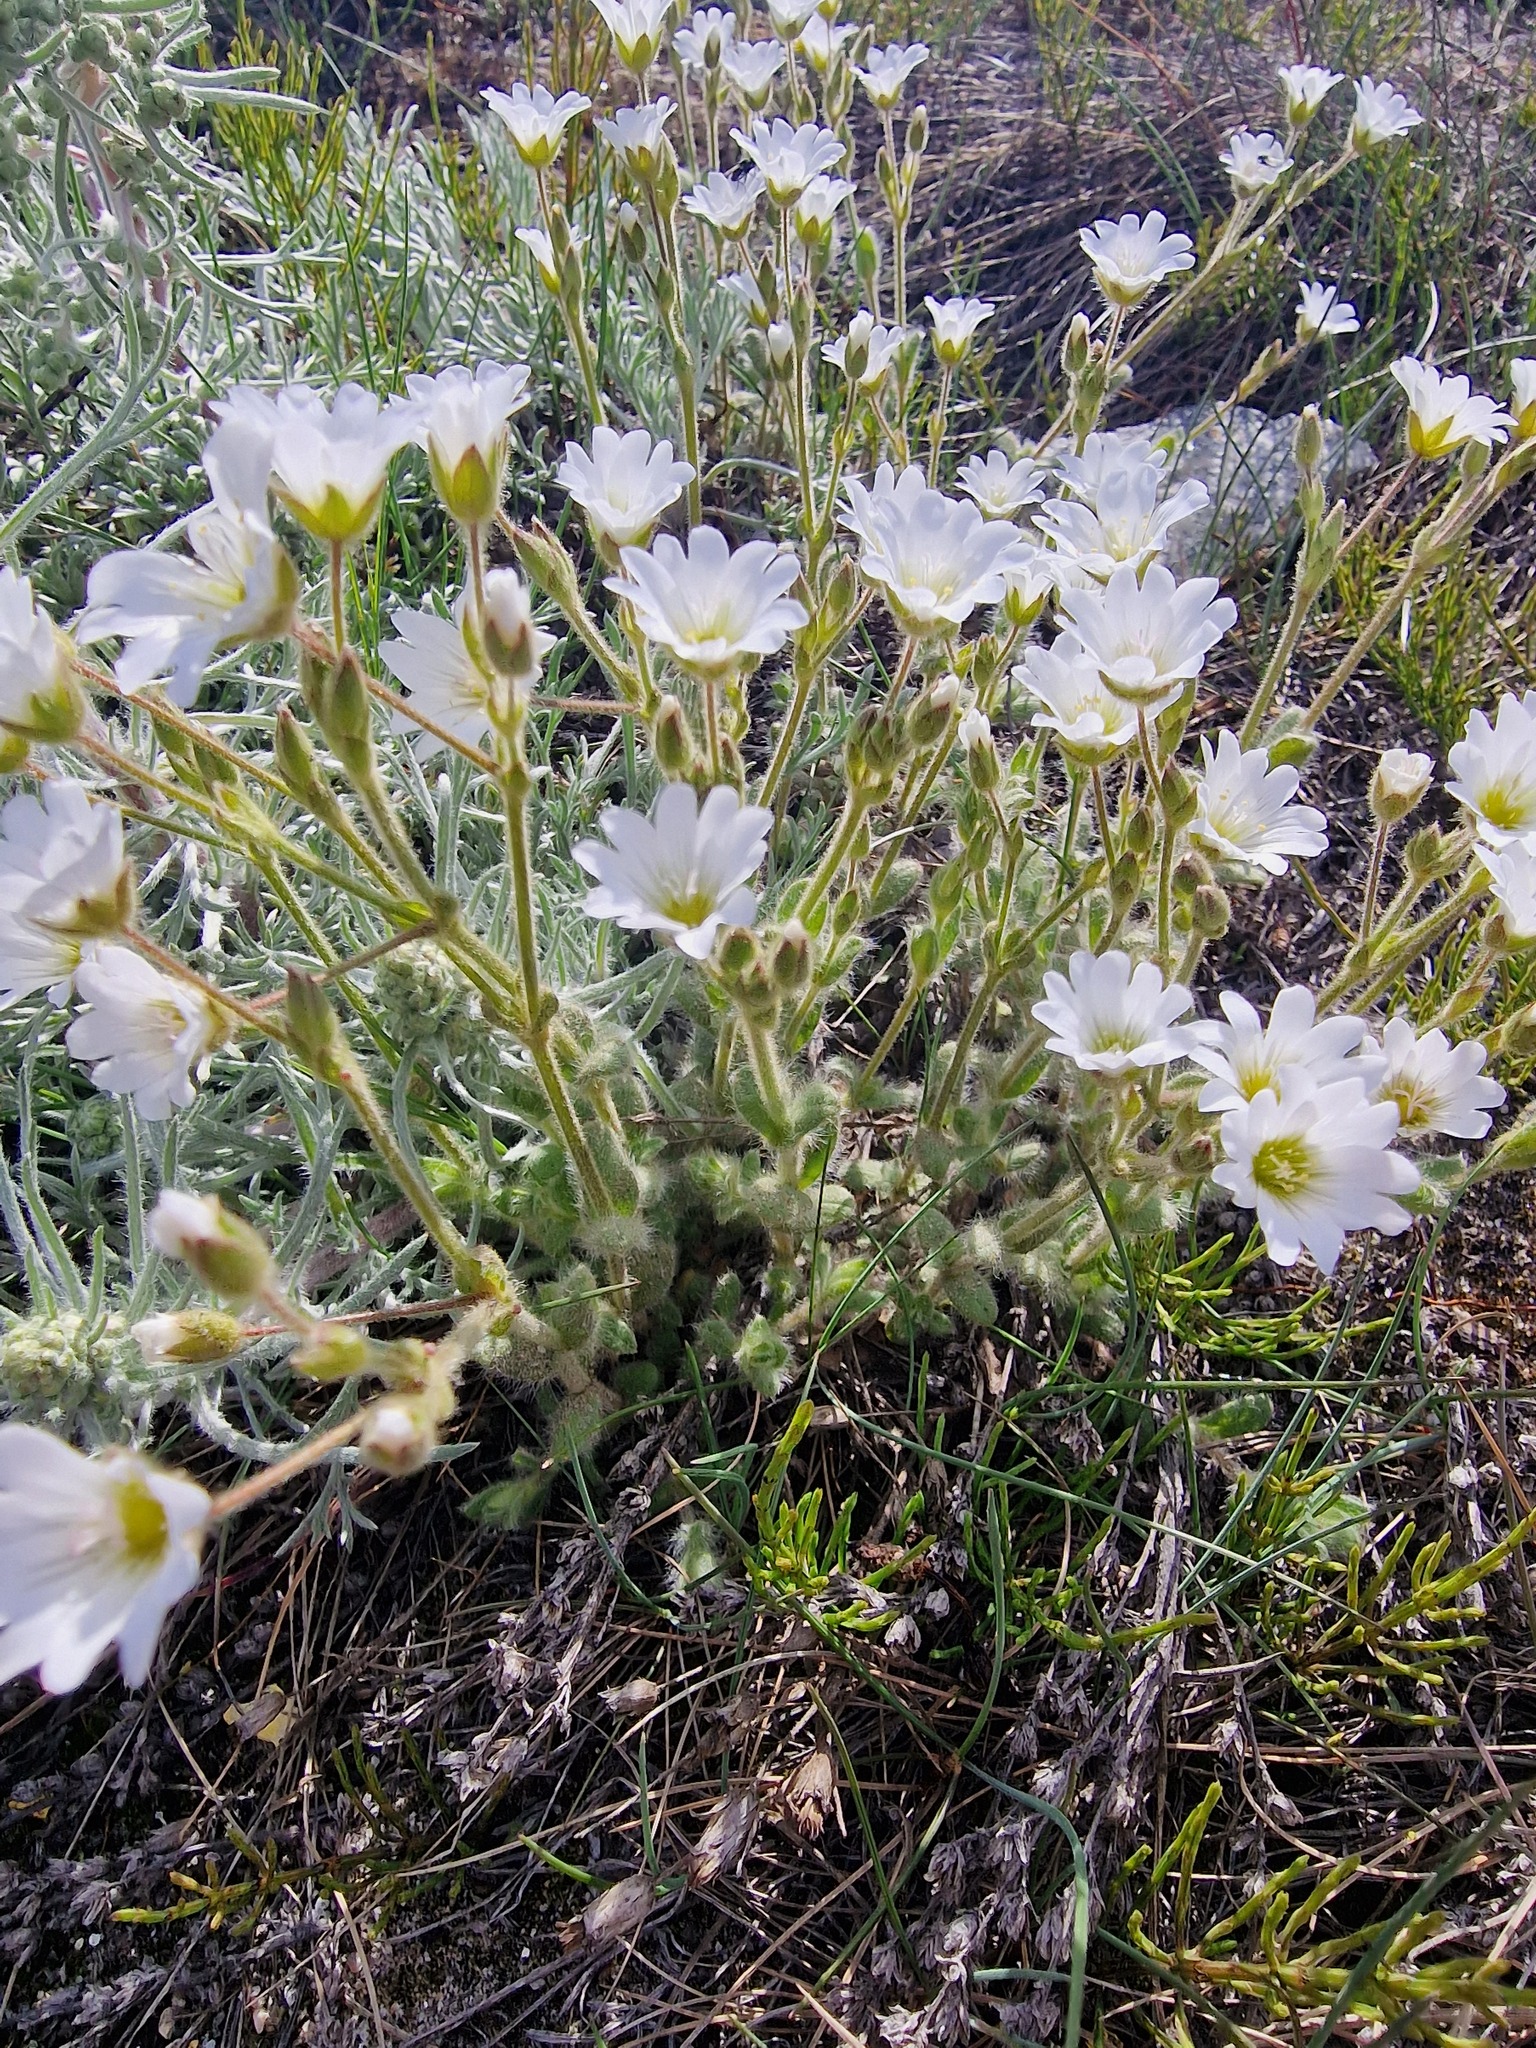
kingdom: Plantae
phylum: Tracheophyta
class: Magnoliopsida
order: Caryophyllales
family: Caryophyllaceae
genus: Cerastium
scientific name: Cerastium alpinum
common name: Alpine mouse-ear
